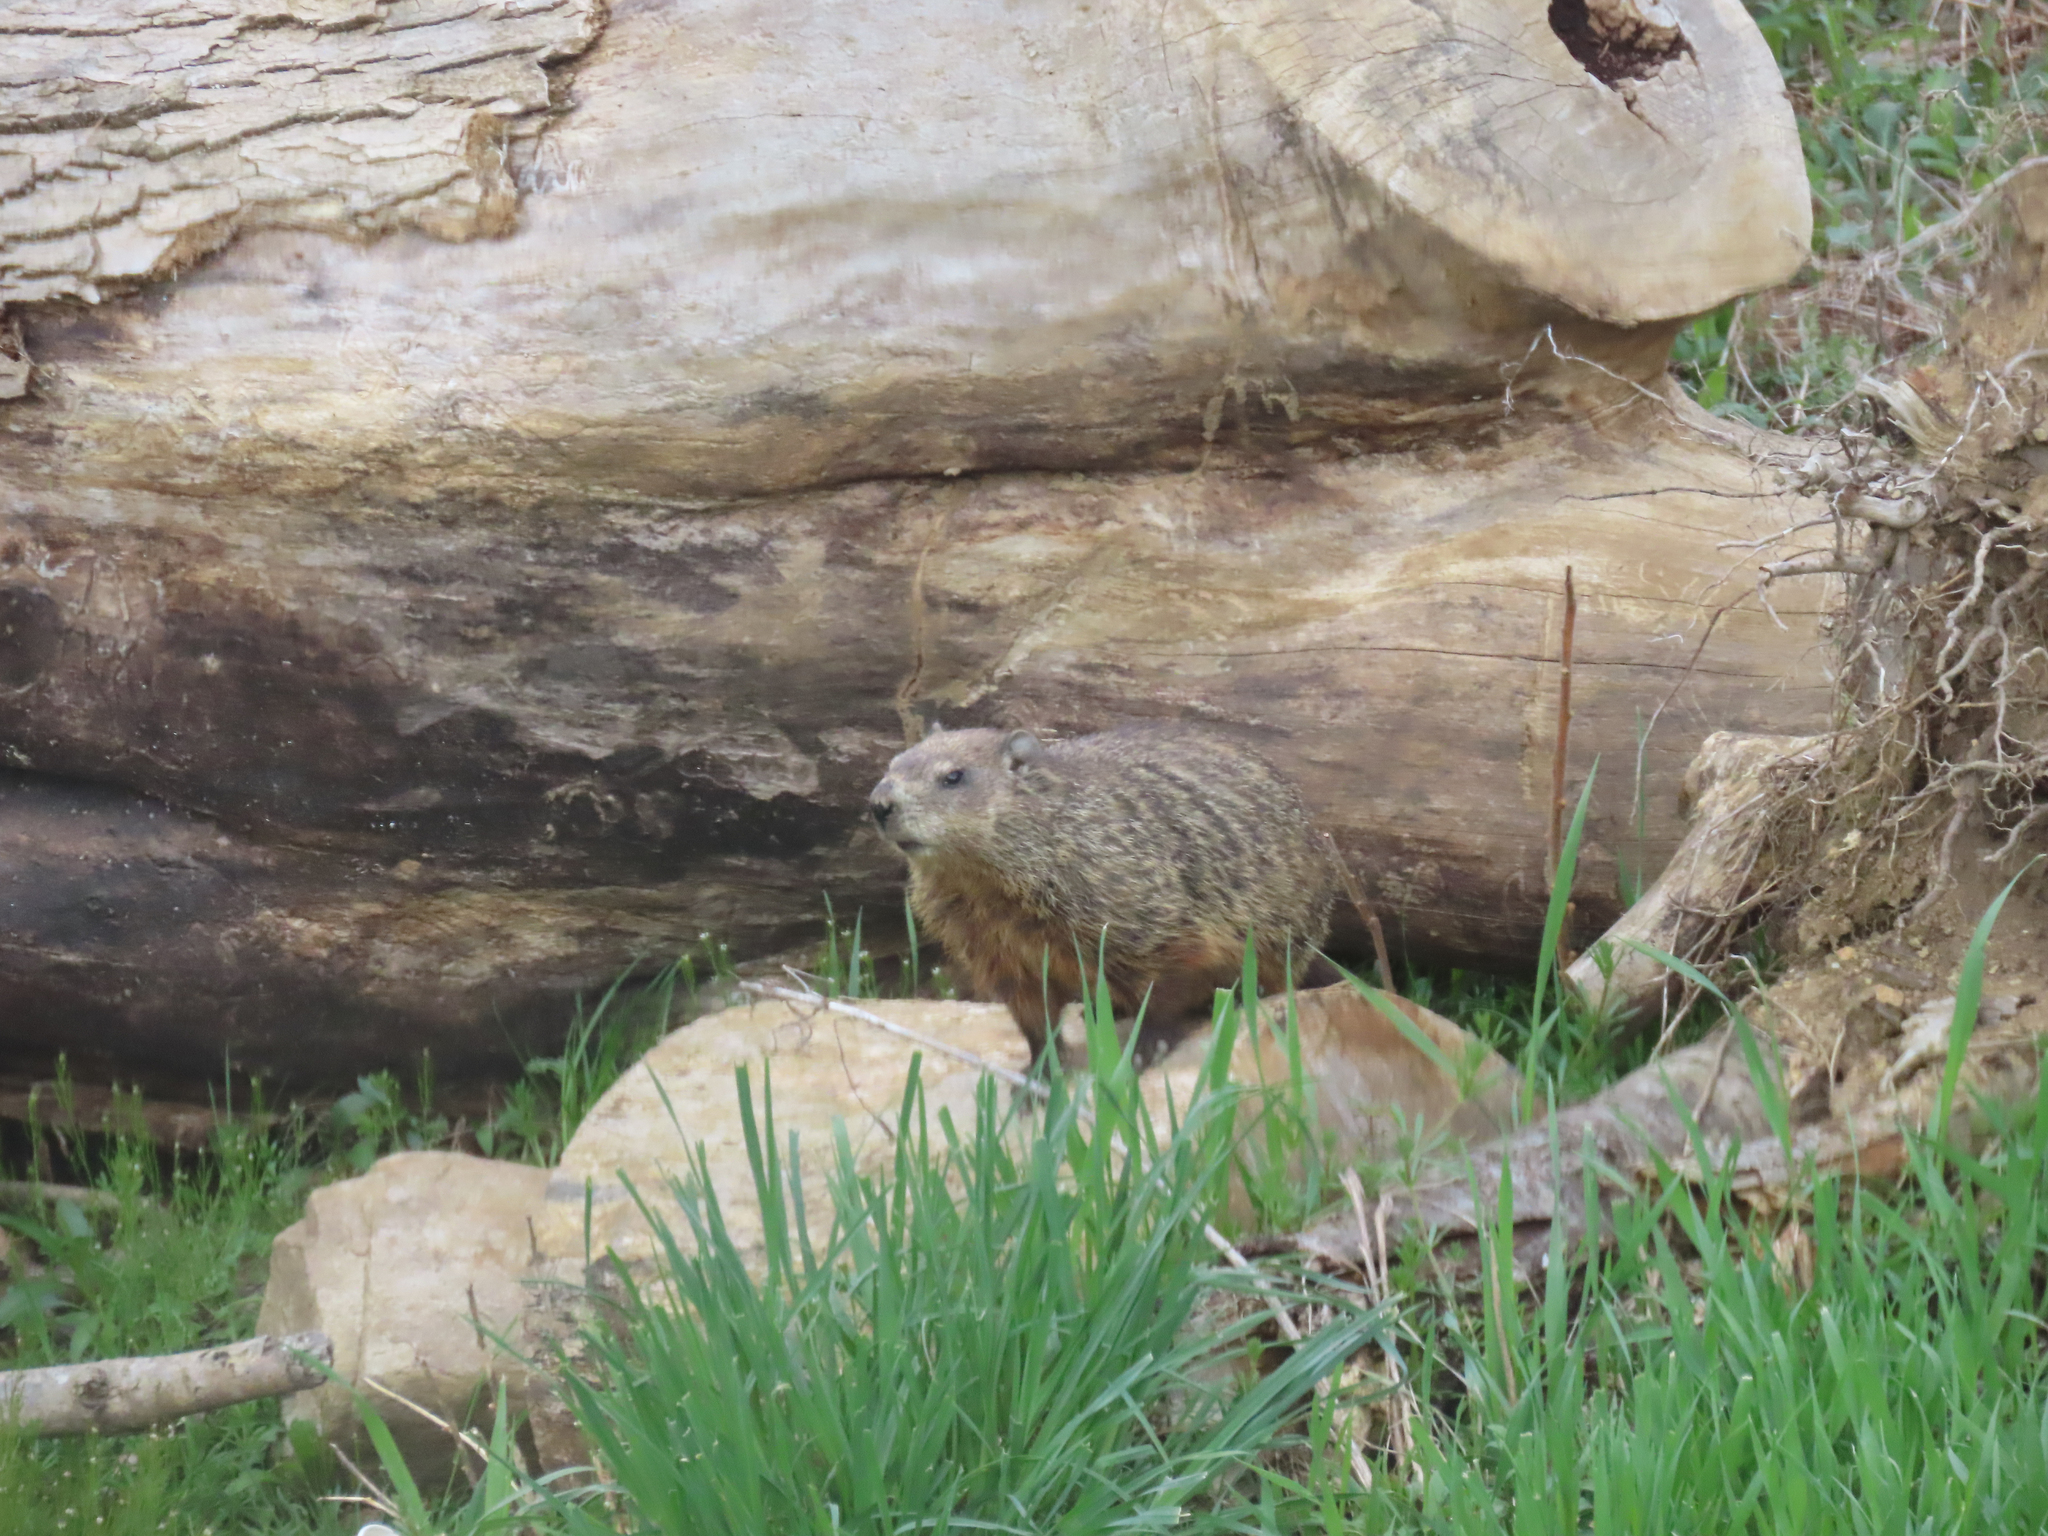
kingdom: Animalia
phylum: Chordata
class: Mammalia
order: Rodentia
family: Sciuridae
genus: Marmota
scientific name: Marmota monax
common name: Groundhog
